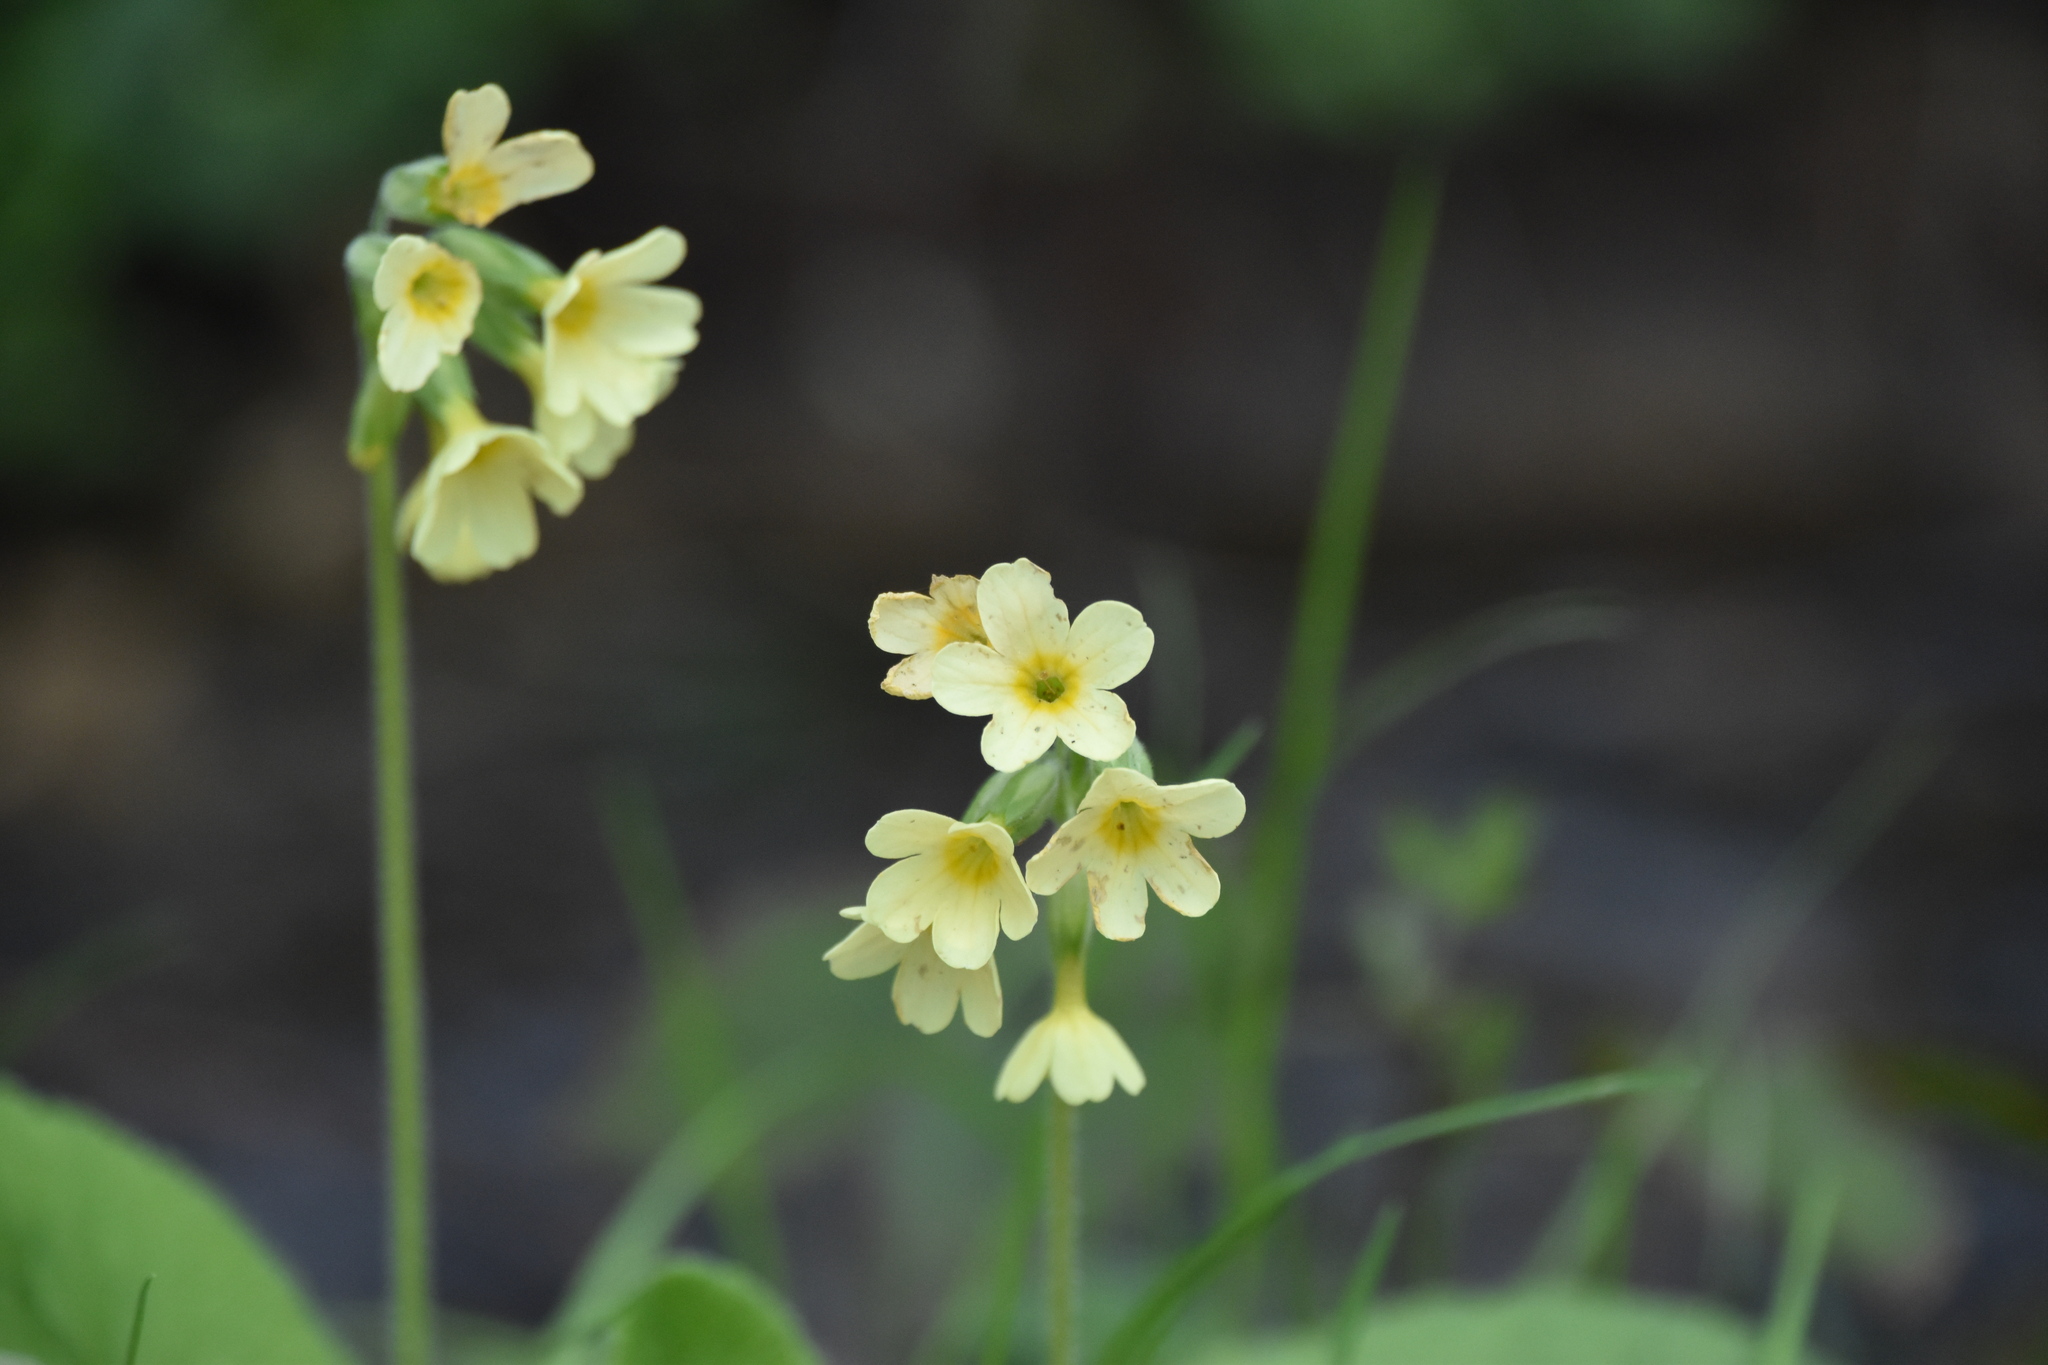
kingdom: Plantae
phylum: Tracheophyta
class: Magnoliopsida
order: Ericales
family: Primulaceae
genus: Primula
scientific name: Primula elatior
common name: Oxlip
